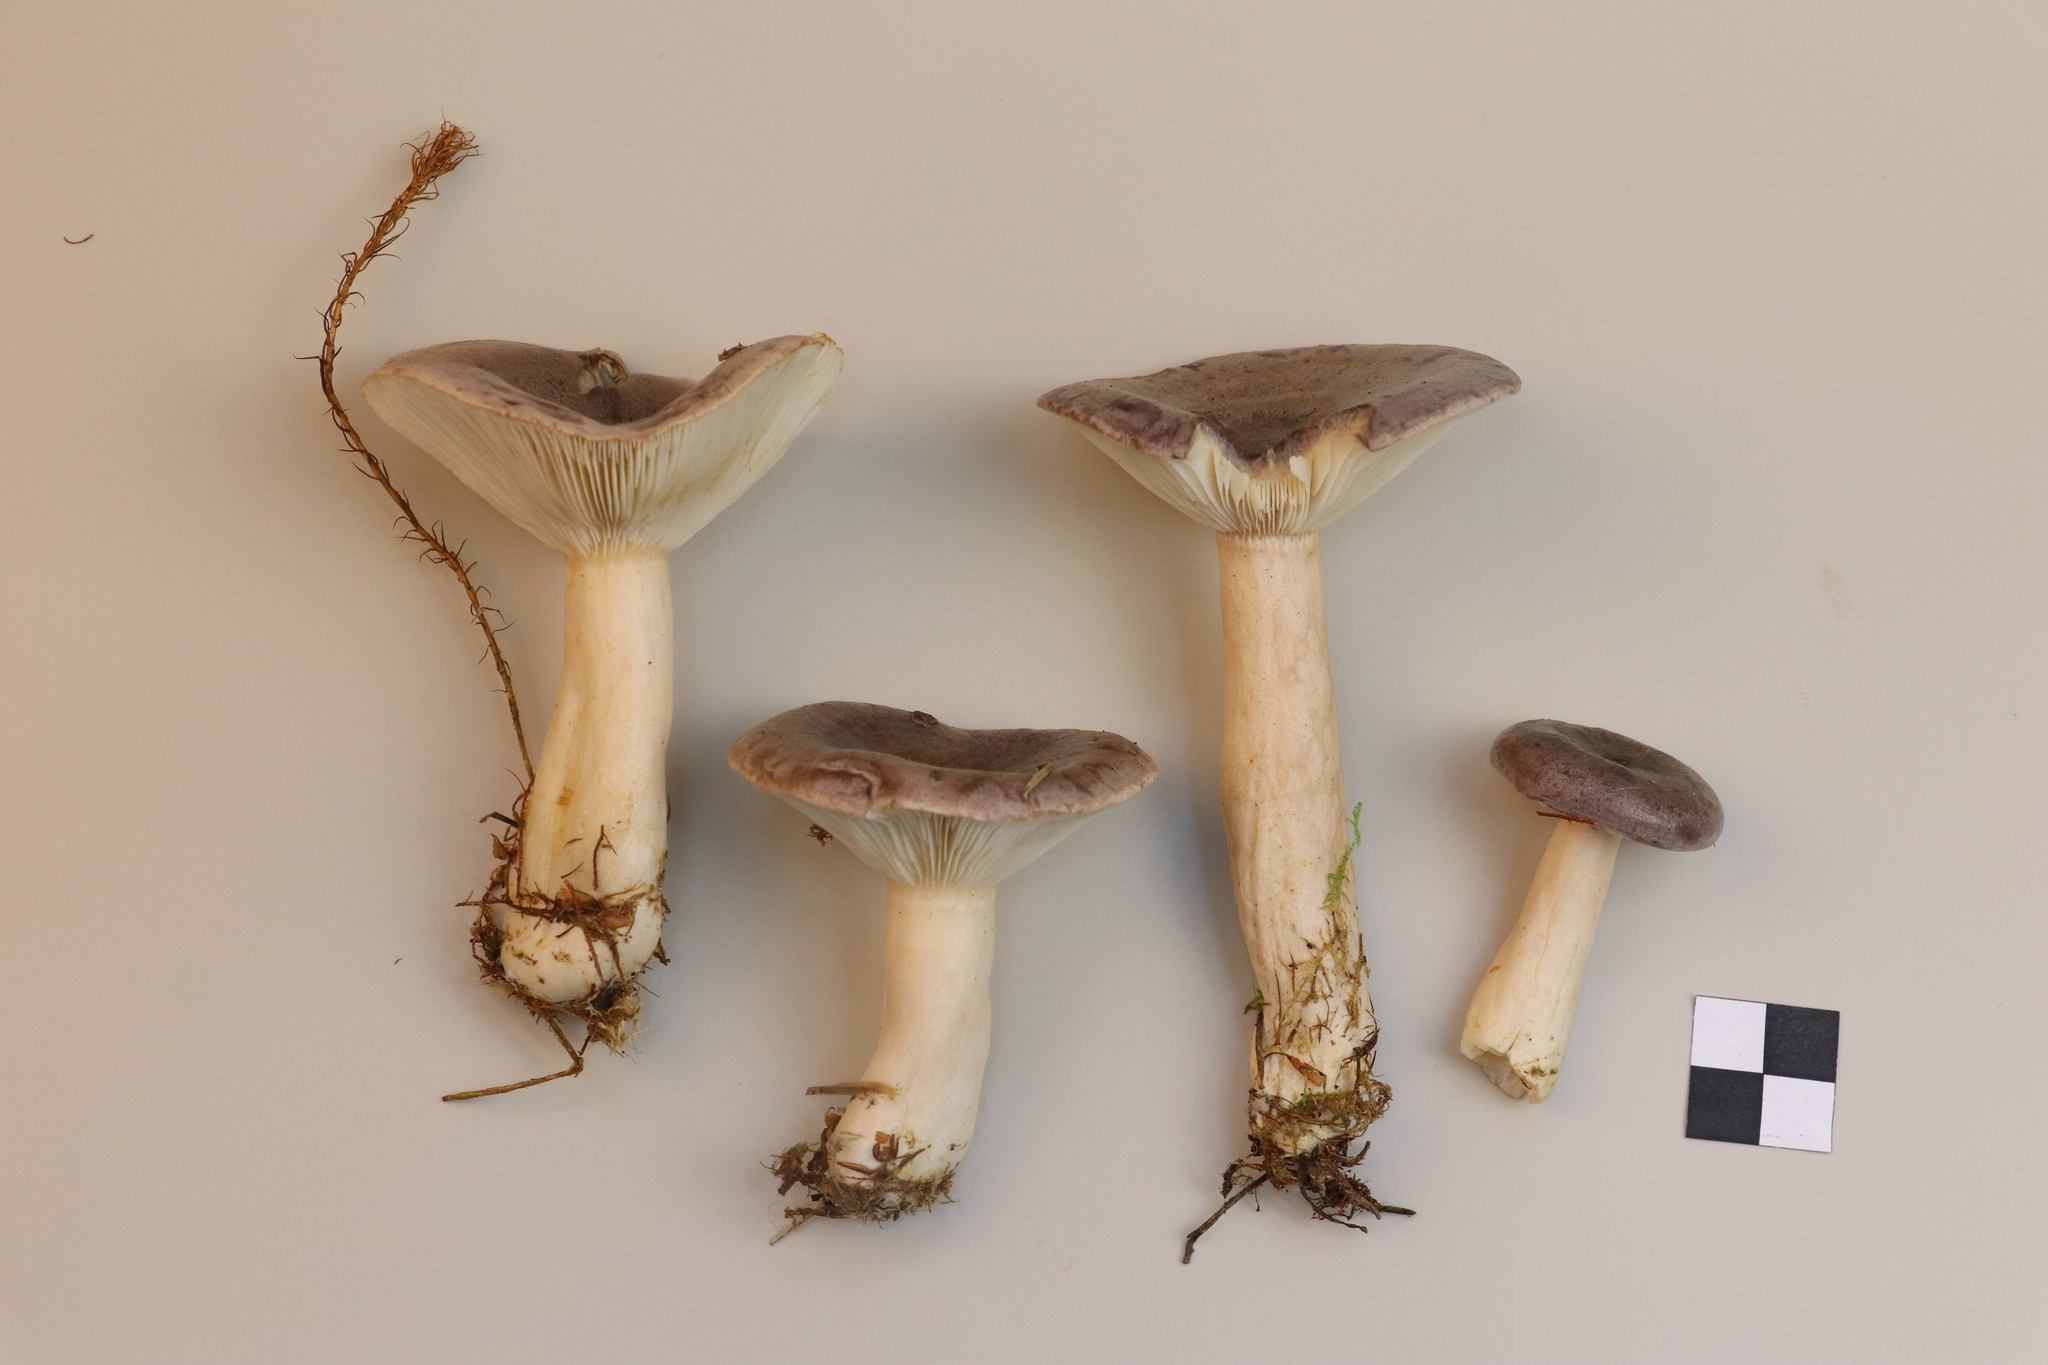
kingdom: Fungi
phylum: Basidiomycota
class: Agaricomycetes
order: Russulales
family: Russulaceae
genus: Lactarius
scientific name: Lactarius trivialis
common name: Tacked milkcap
